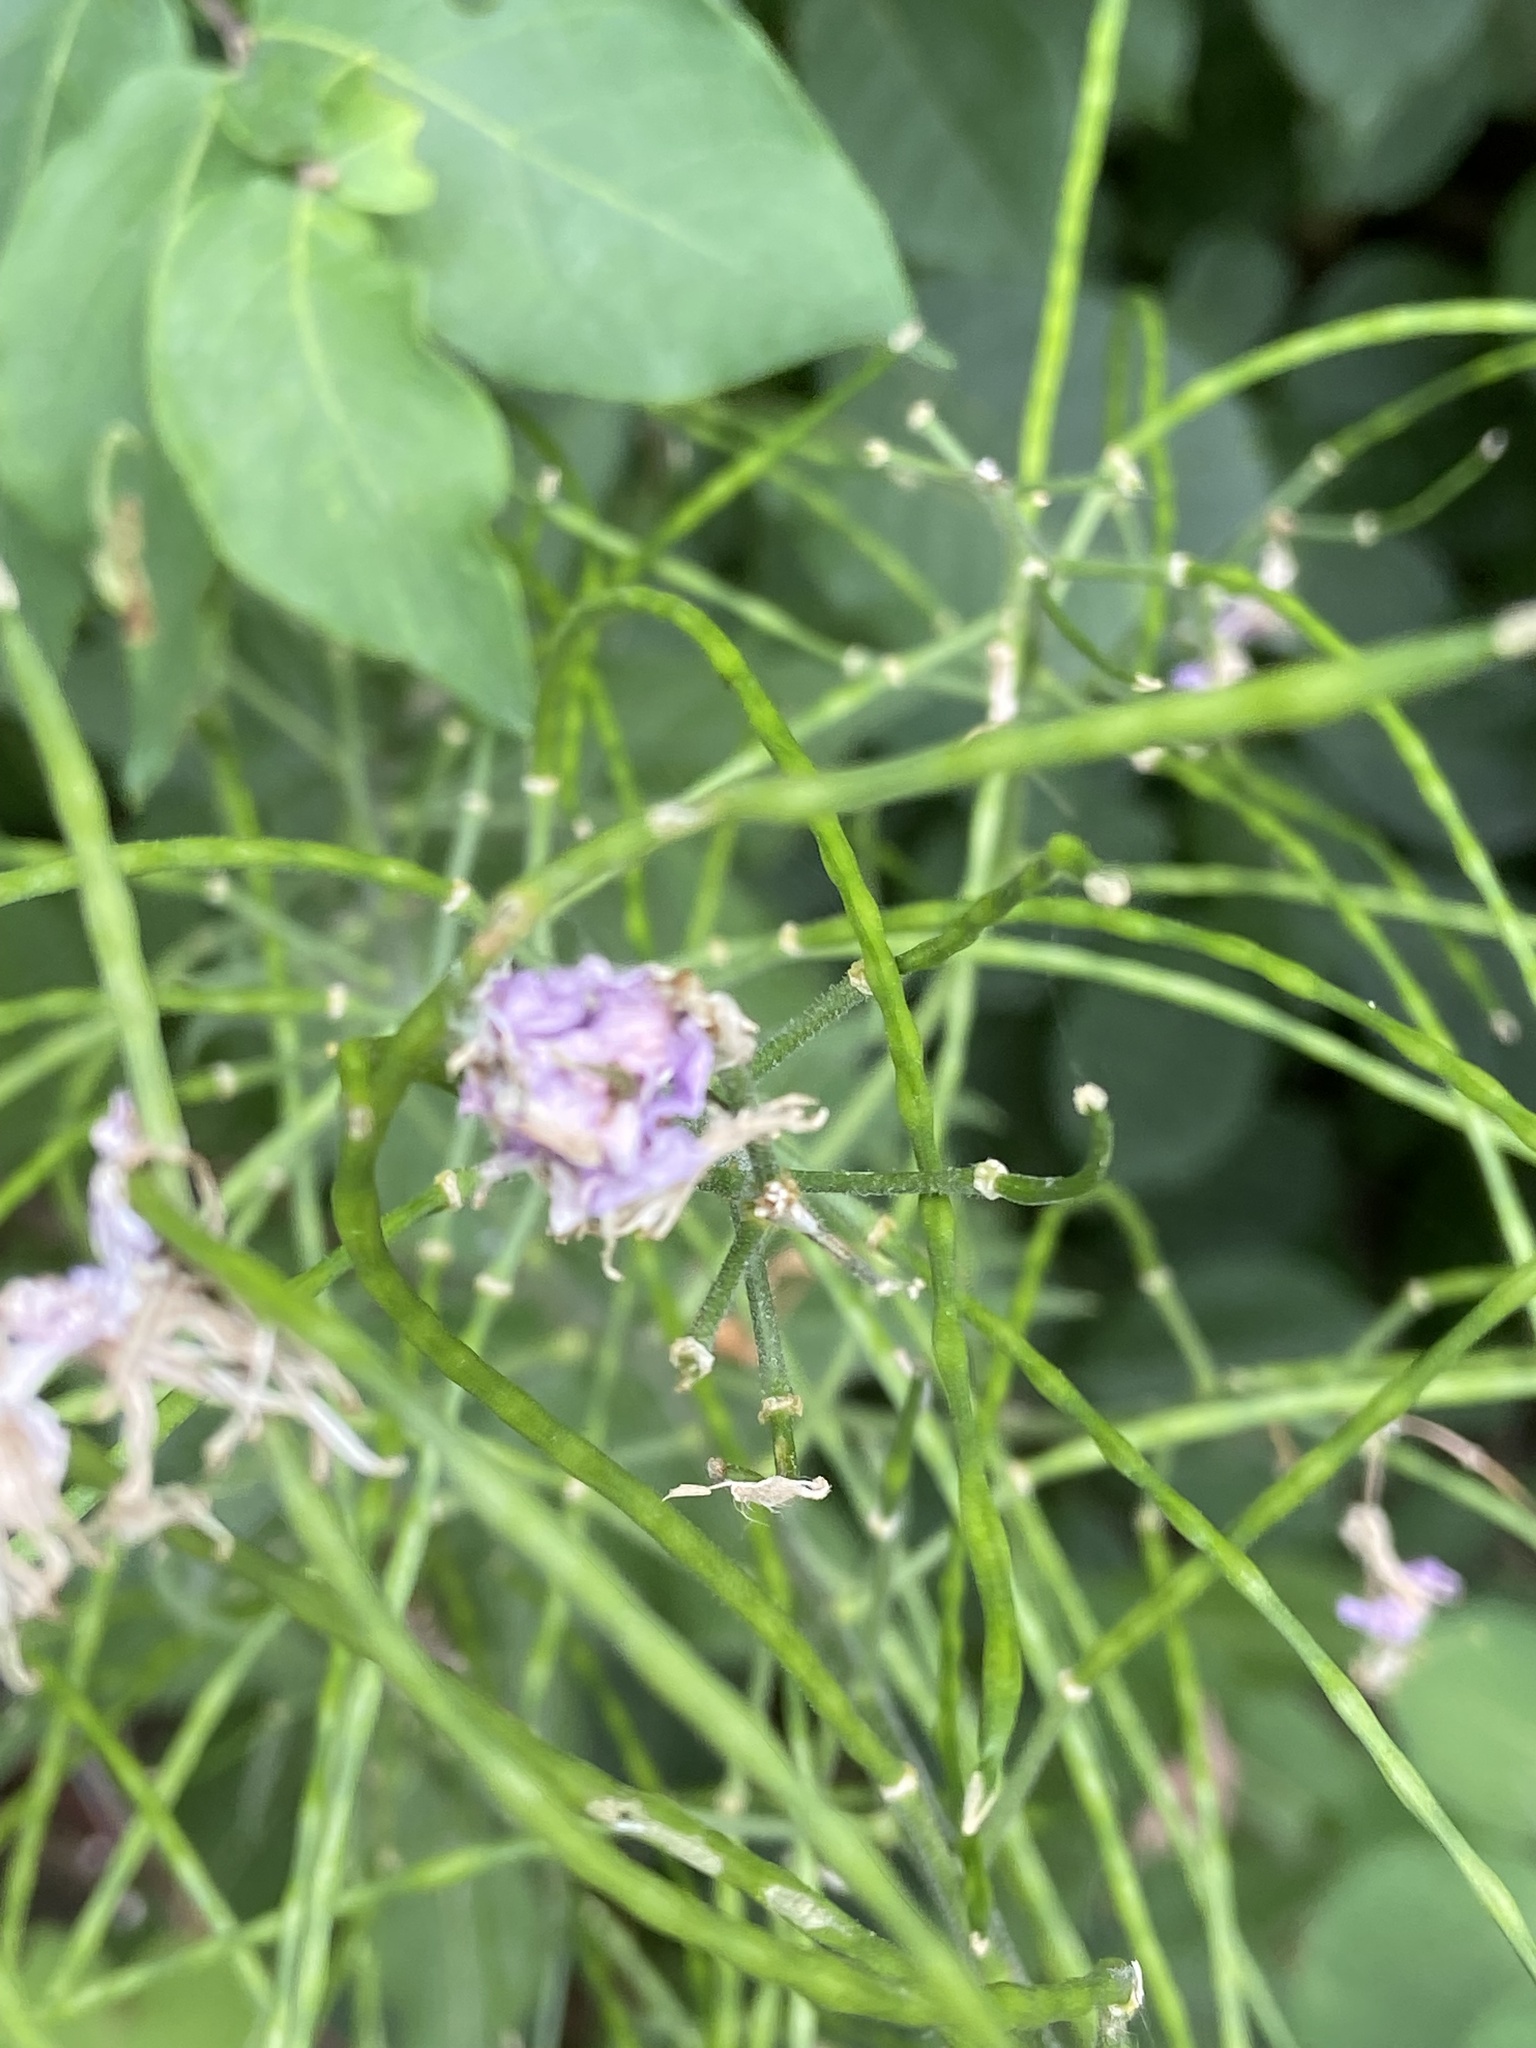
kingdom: Plantae
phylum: Tracheophyta
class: Magnoliopsida
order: Brassicales
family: Brassicaceae
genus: Hesperis
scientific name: Hesperis matronalis
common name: Dame's-violet
